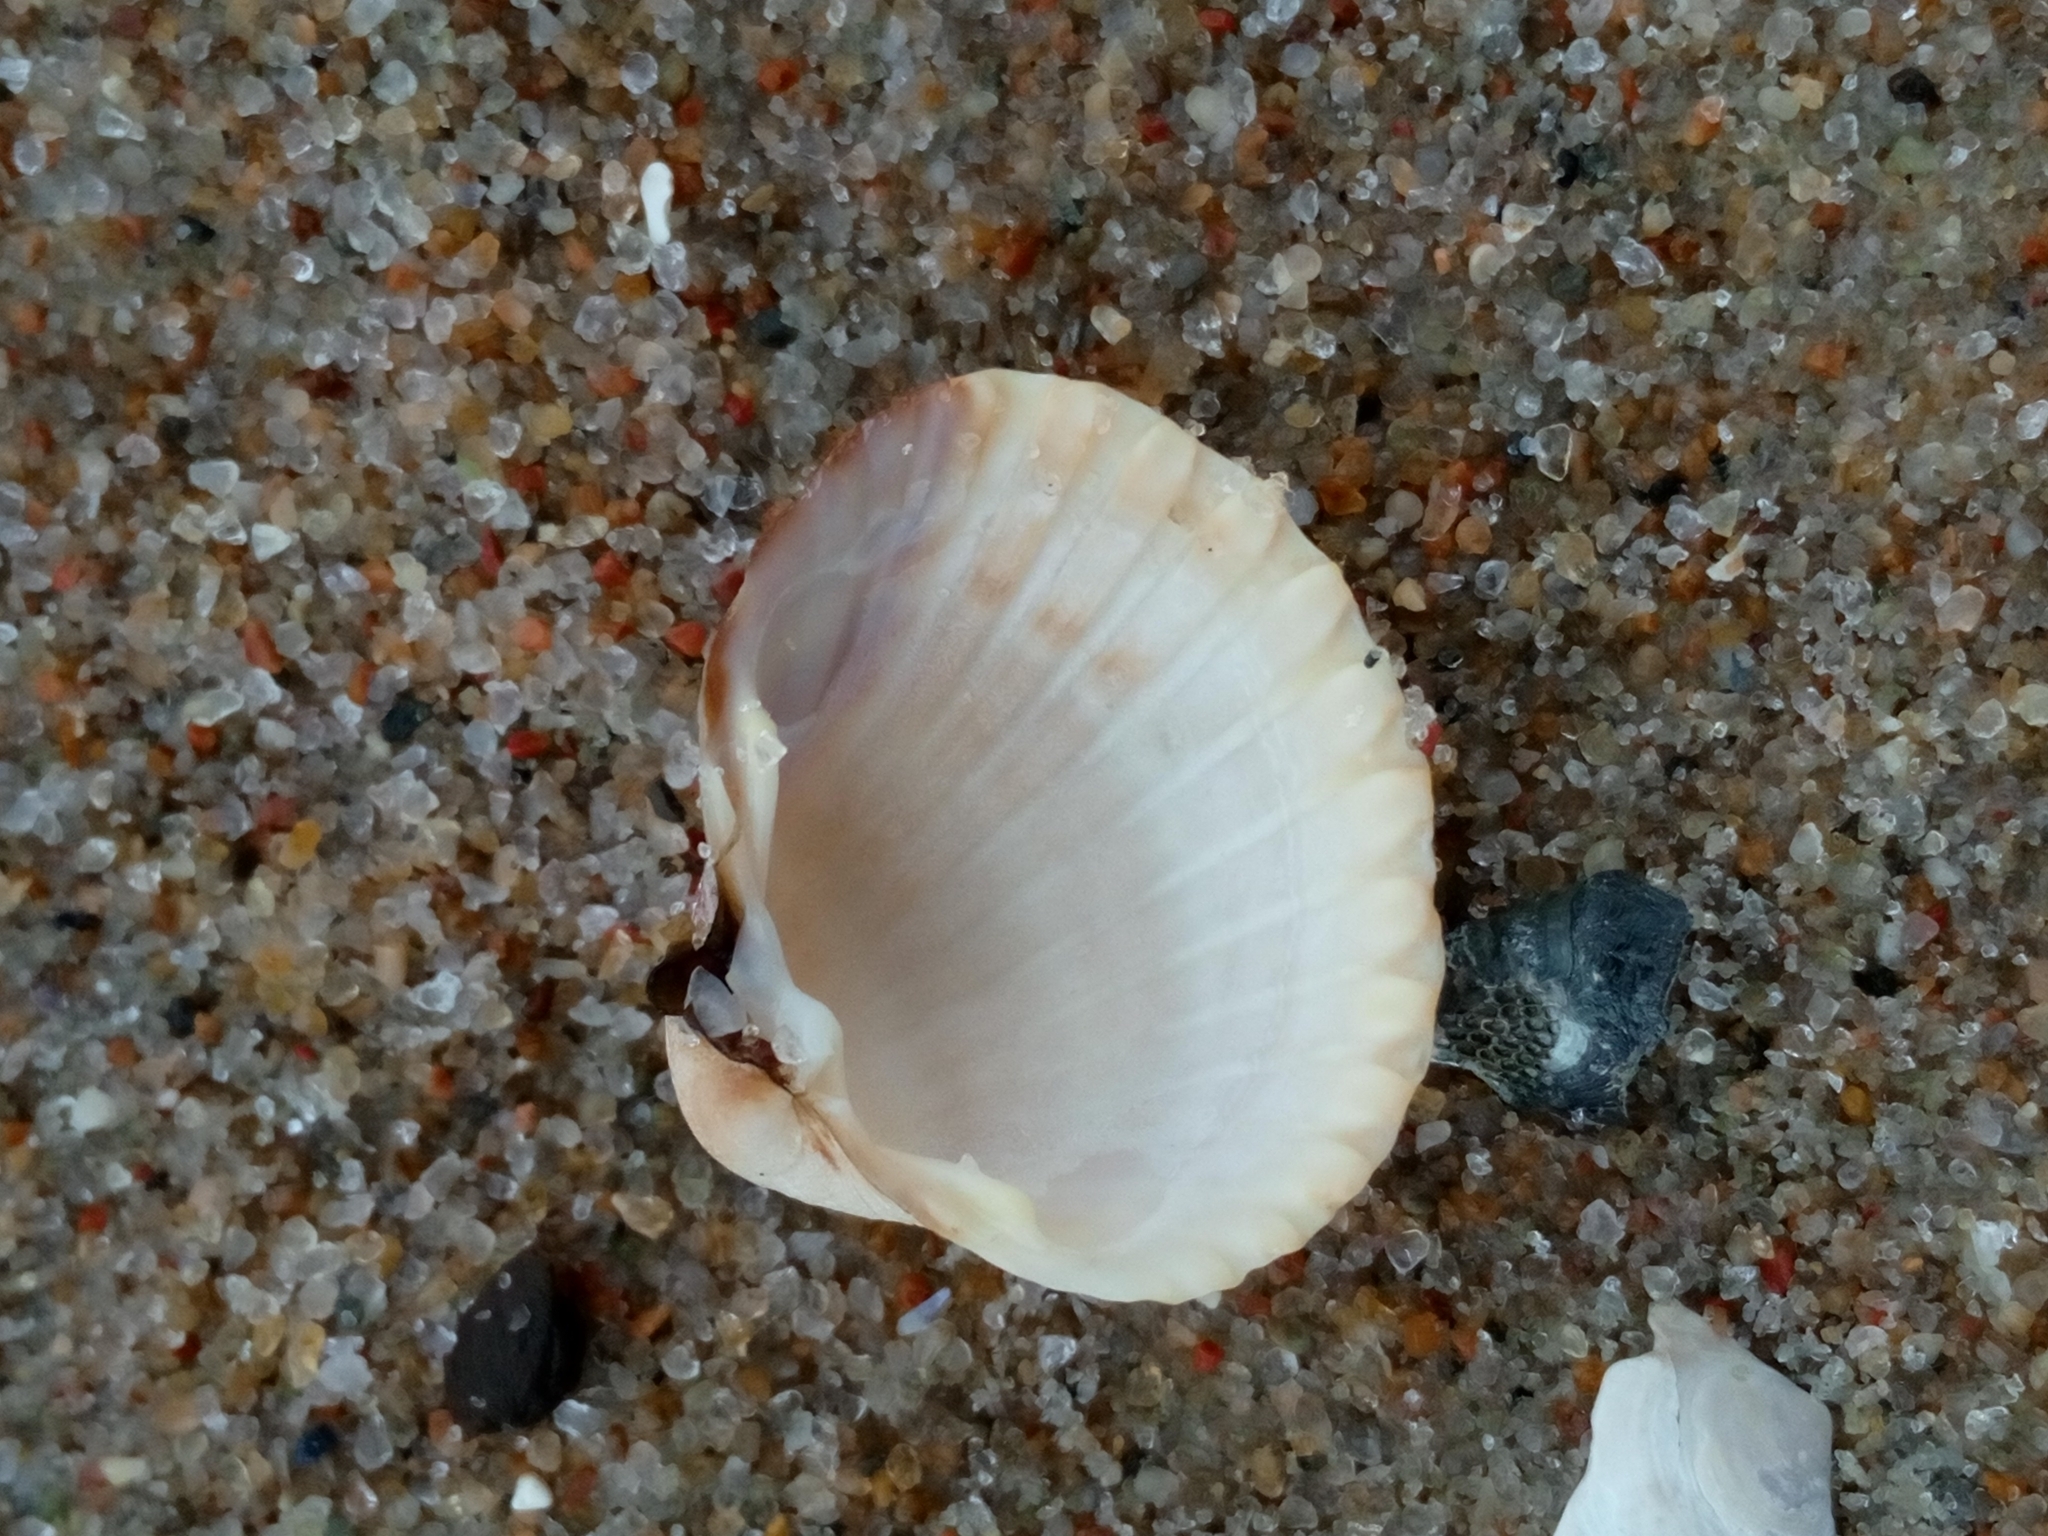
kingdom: Animalia
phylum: Mollusca
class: Bivalvia
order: Cardiida
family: Cardiidae
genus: Cerastoderma
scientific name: Cerastoderma glaucum
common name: Lagoon cockle
